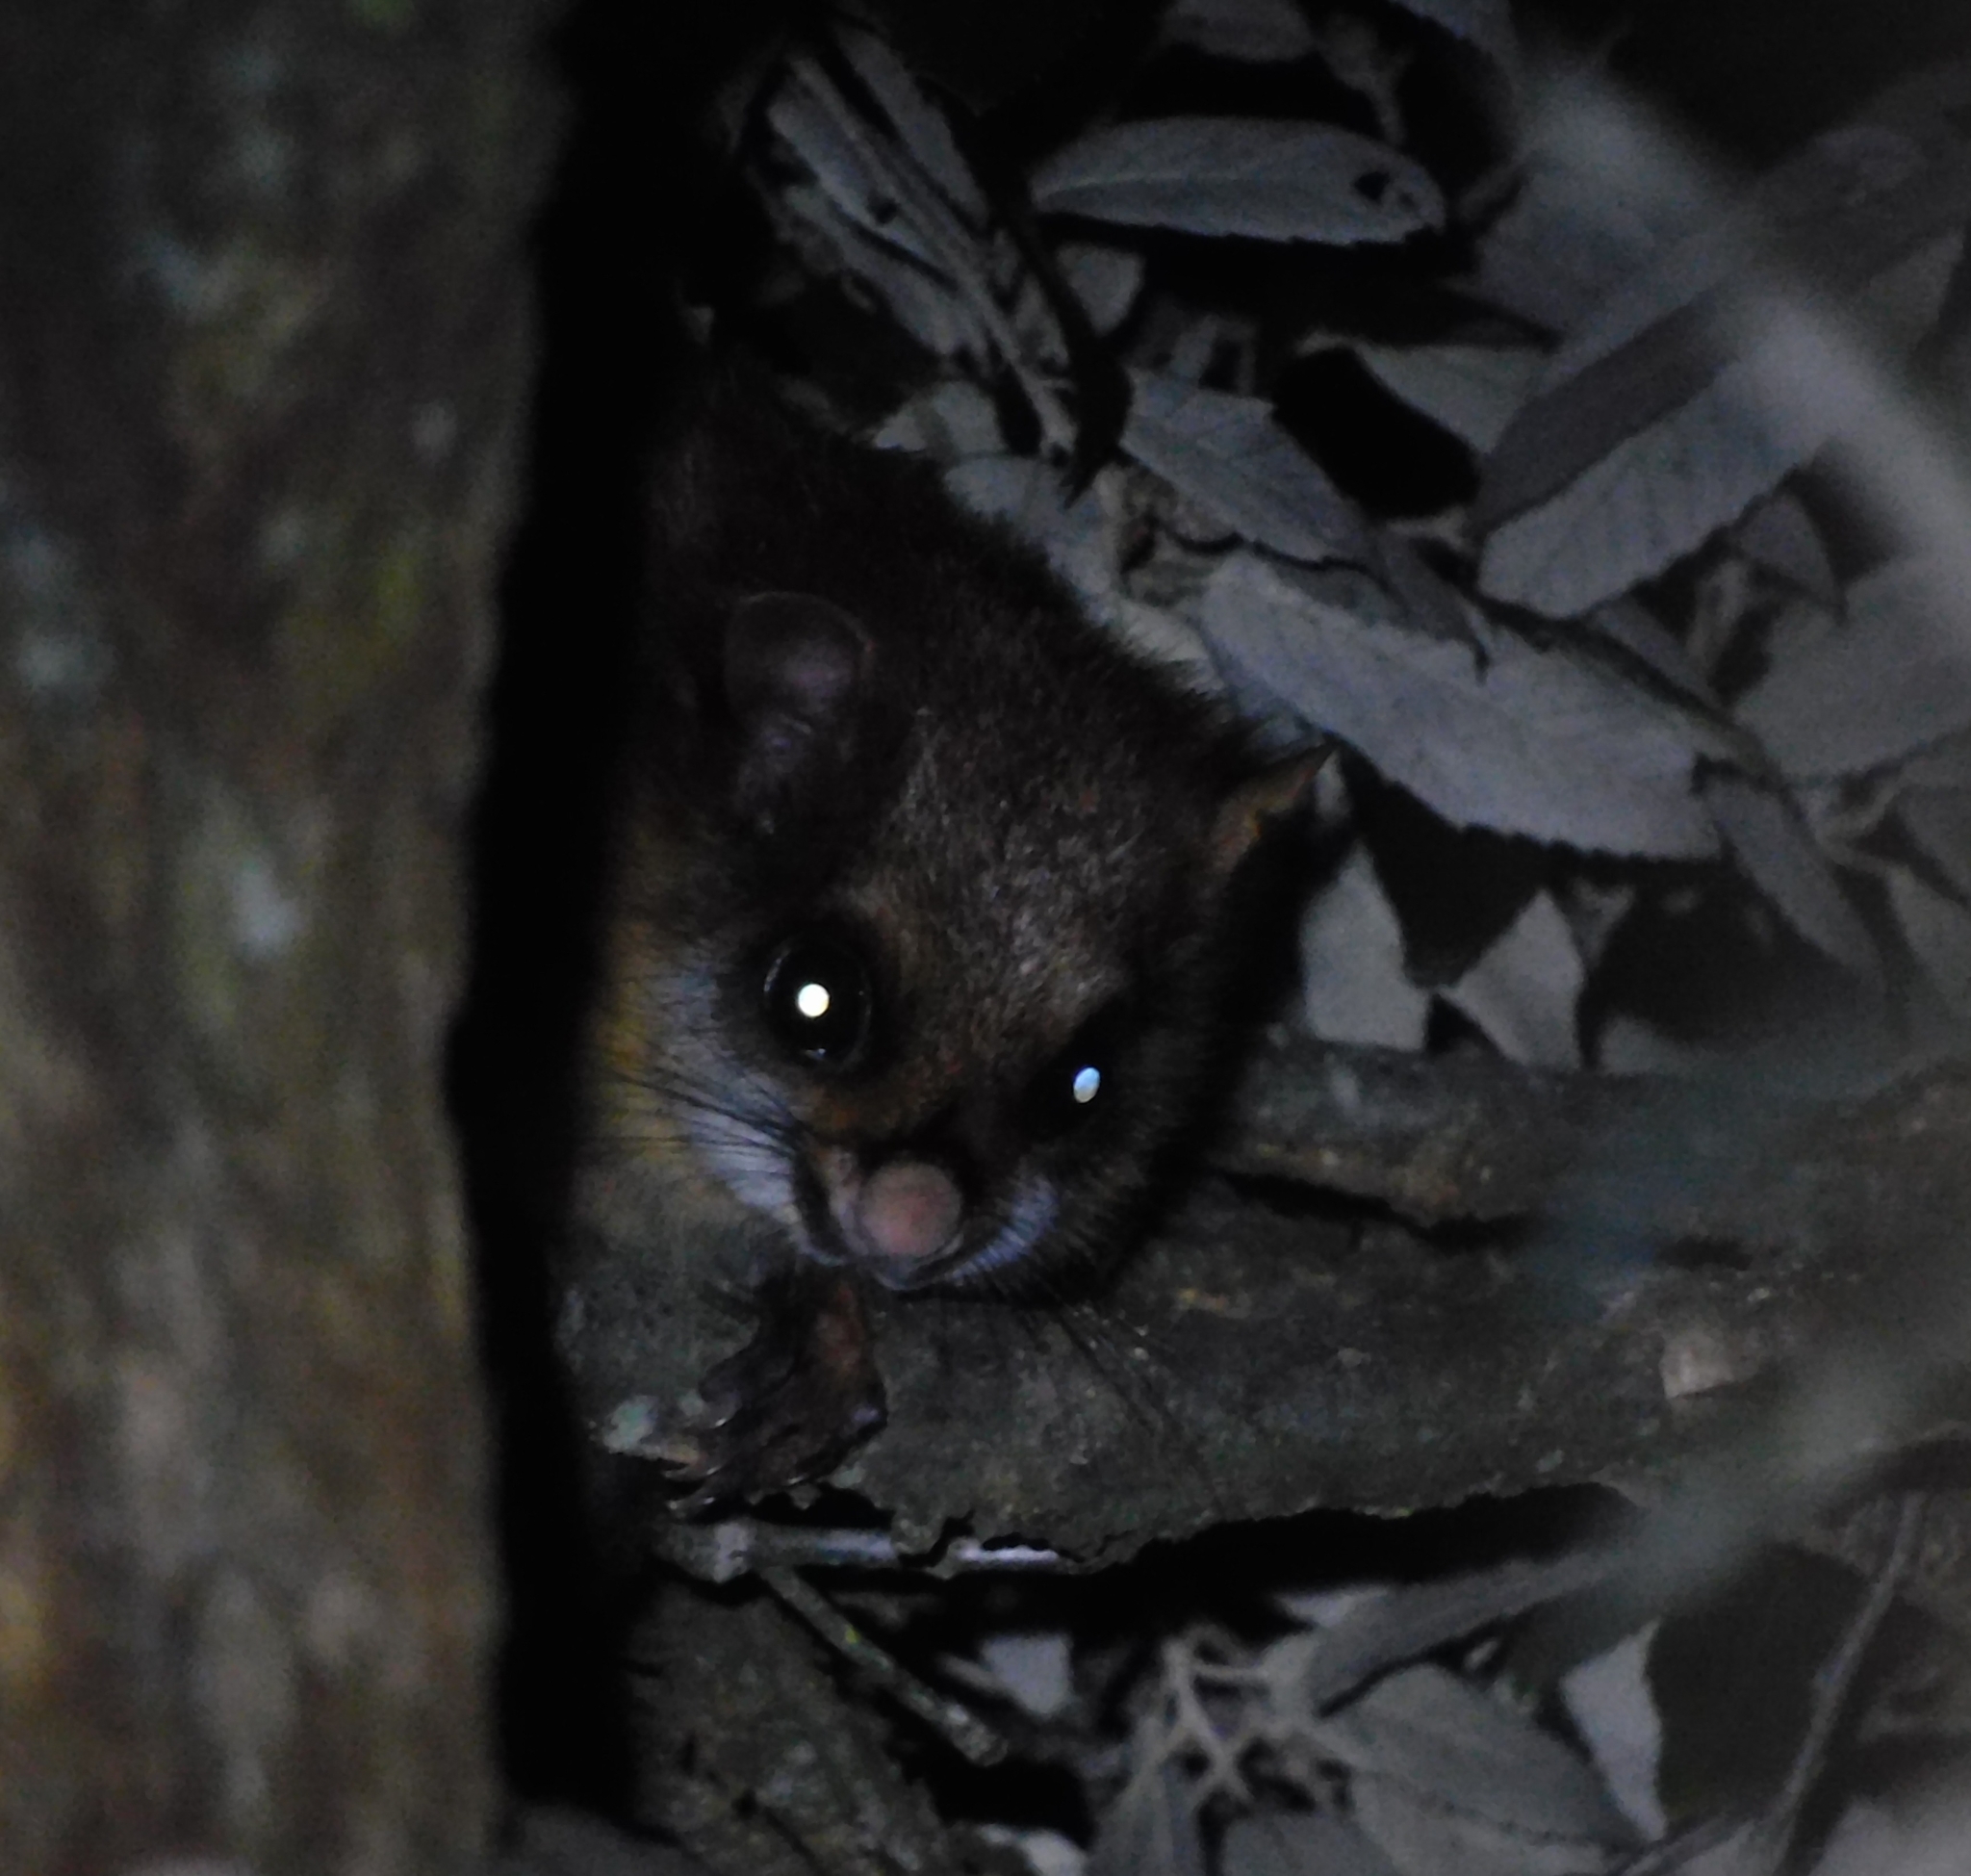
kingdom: Animalia
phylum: Chordata
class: Mammalia
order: Rodentia
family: Sciuridae
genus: Petaurista
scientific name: Petaurista petaurista
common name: Red giant flying squirrel
